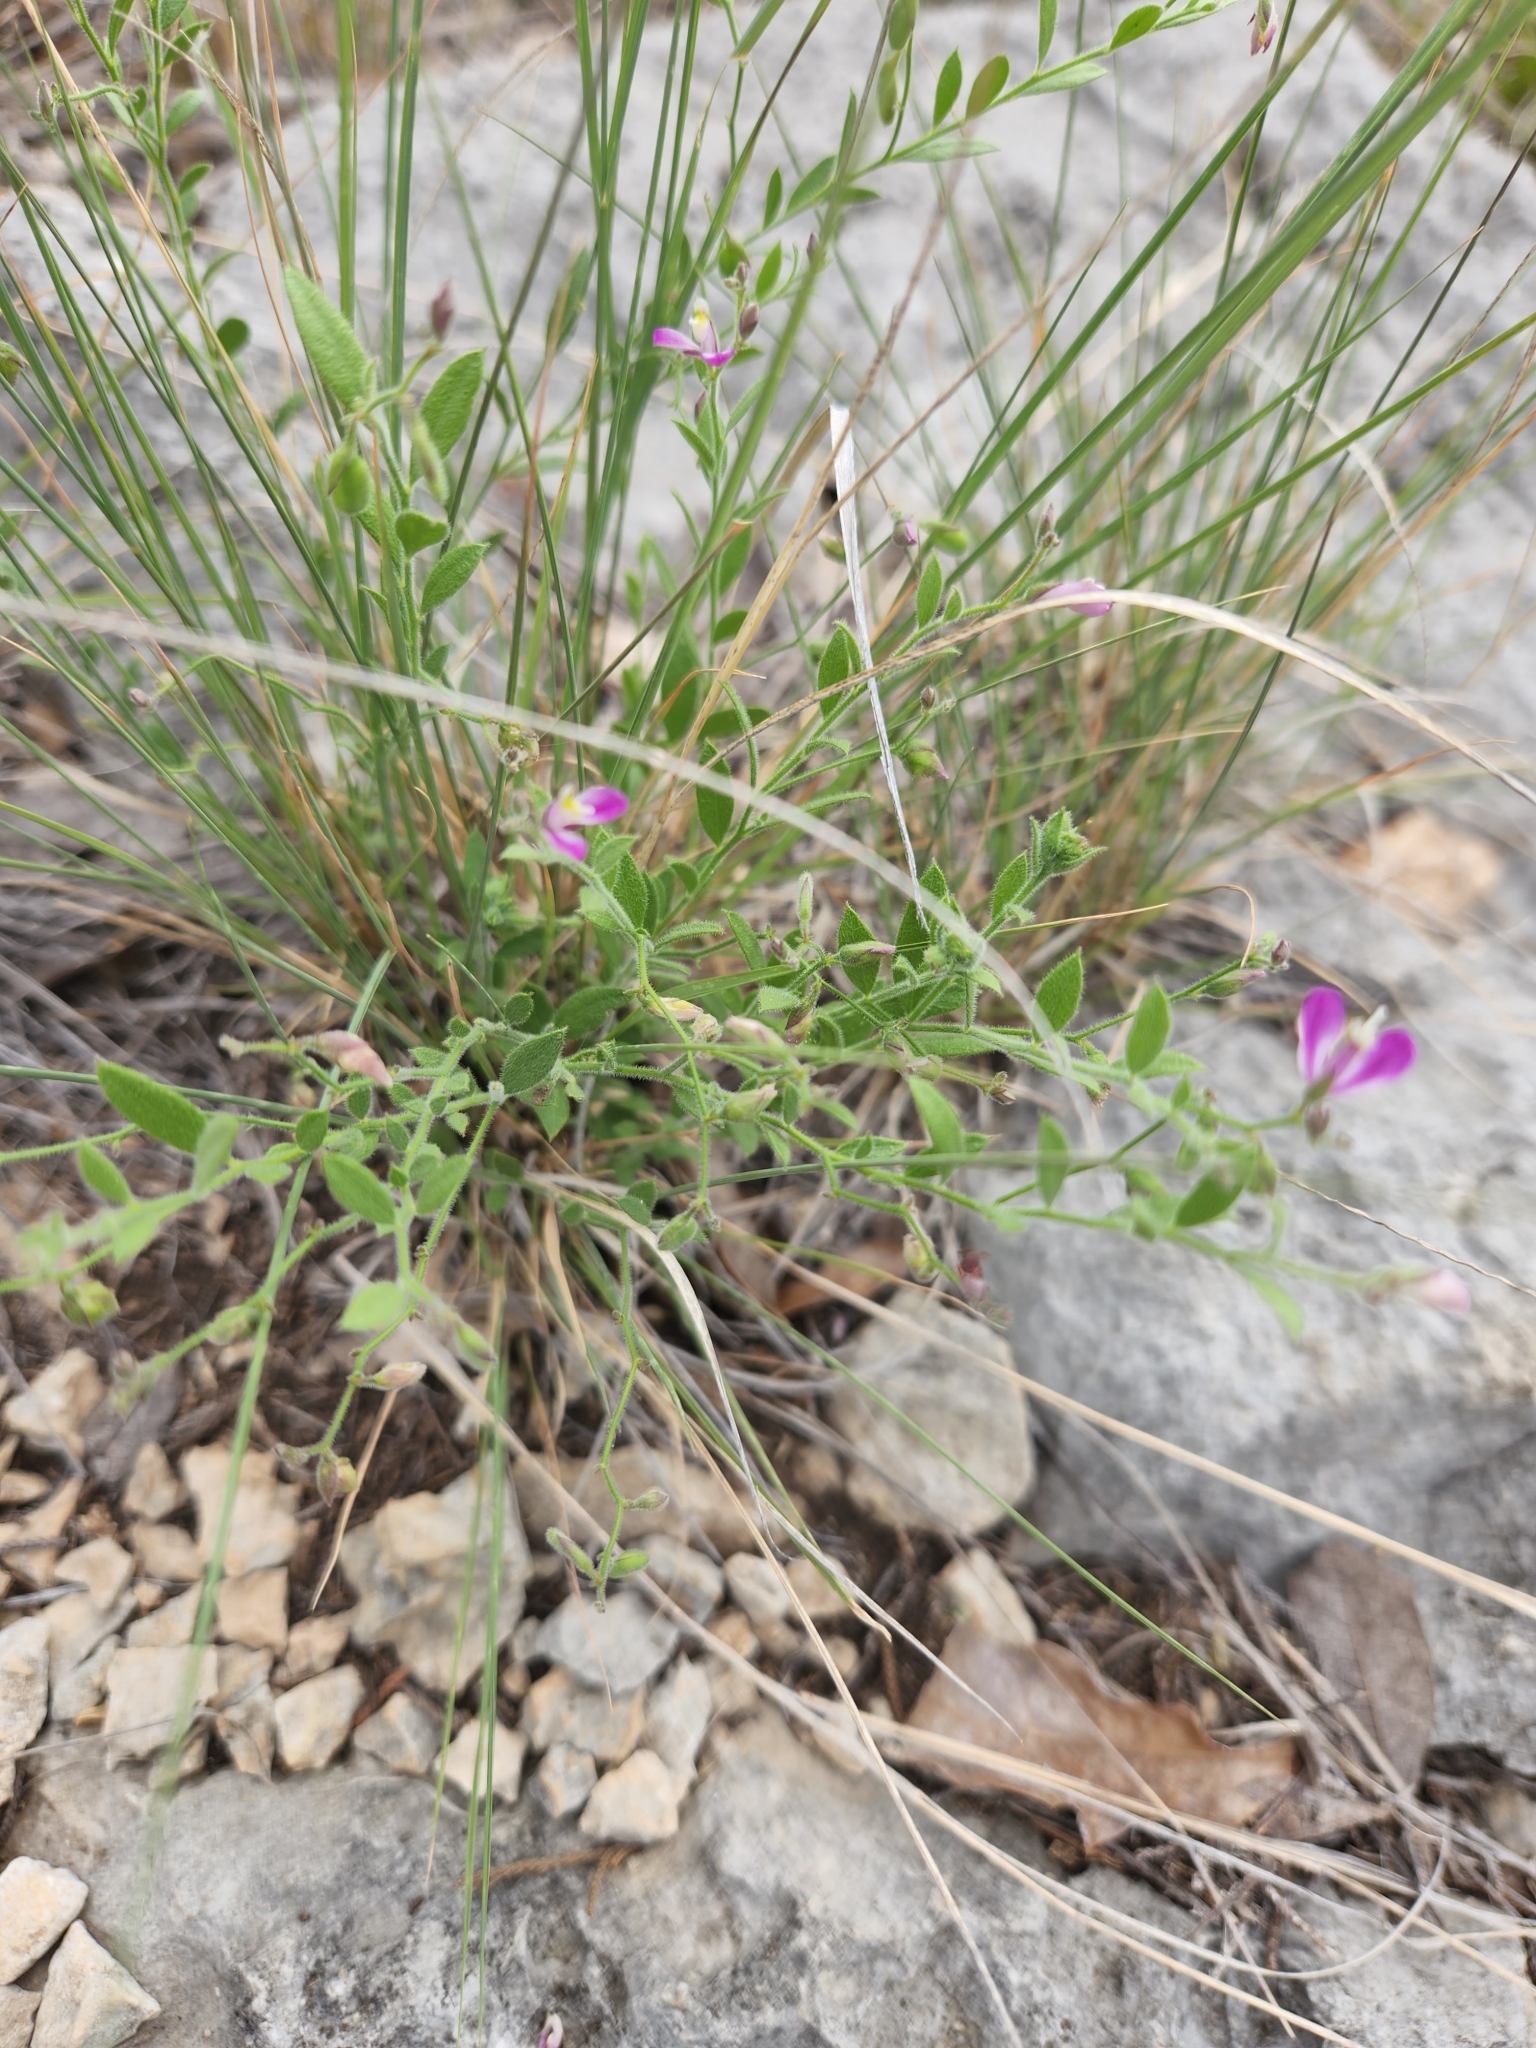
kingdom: Plantae
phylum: Tracheophyta
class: Magnoliopsida
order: Fabales
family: Polygalaceae
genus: Rhinotropis
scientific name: Rhinotropis lindheimeri
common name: Shrubby milkwort
